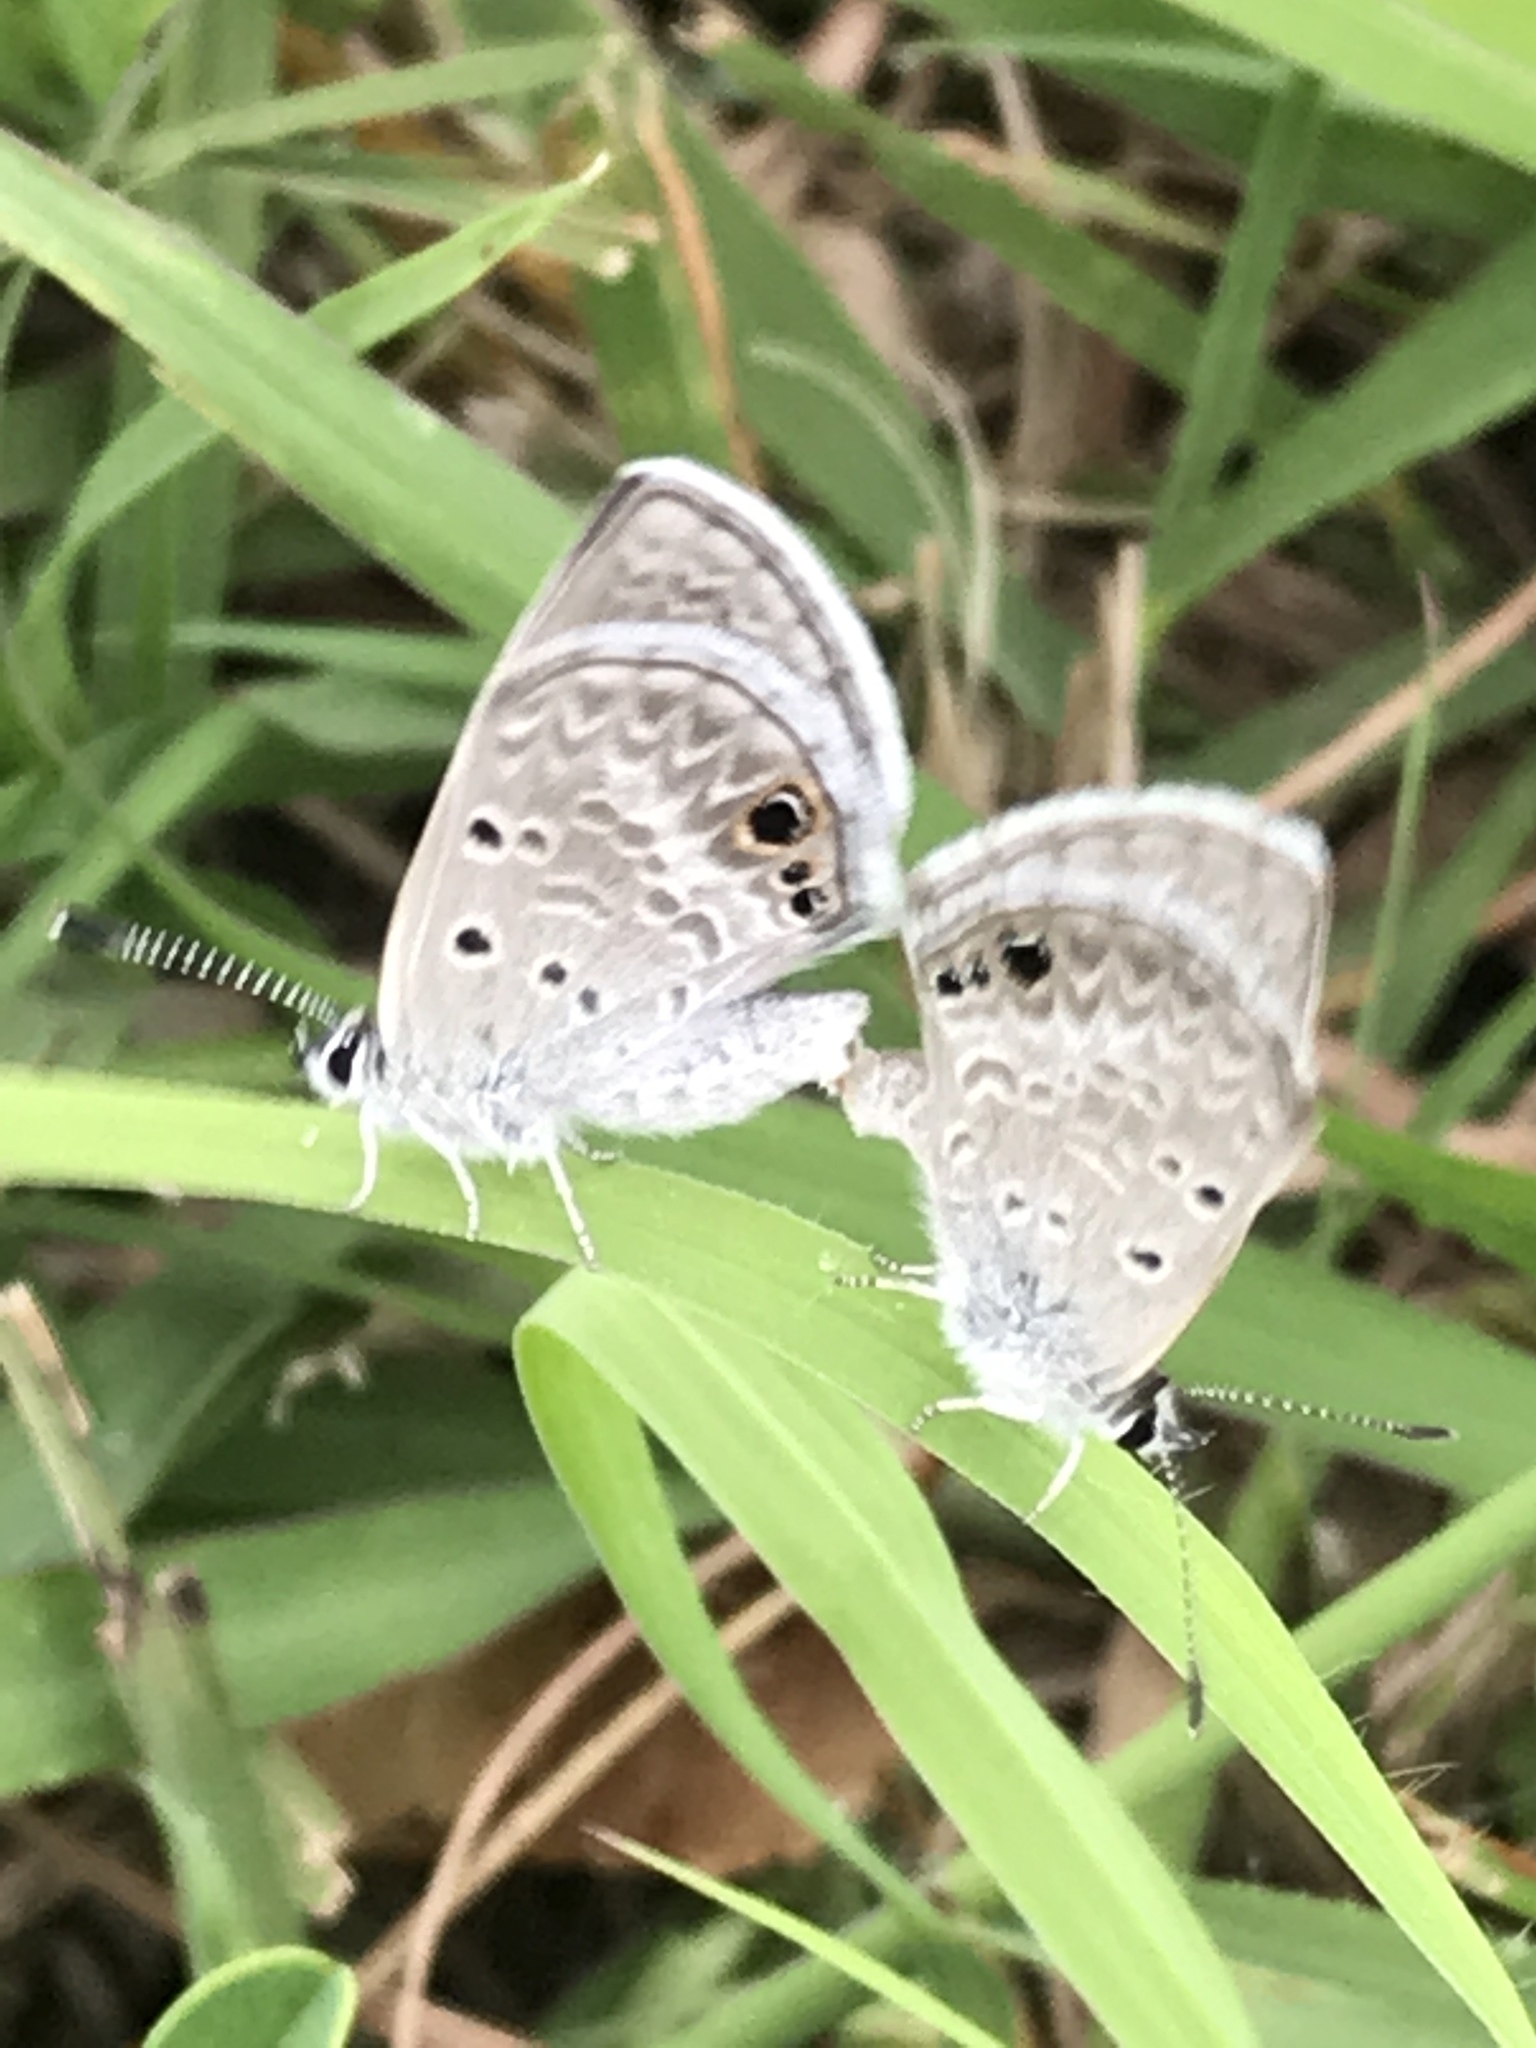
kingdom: Animalia
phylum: Arthropoda
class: Insecta
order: Lepidoptera
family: Lycaenidae
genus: Echinargus
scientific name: Echinargus isola
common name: Reakirt's blue
